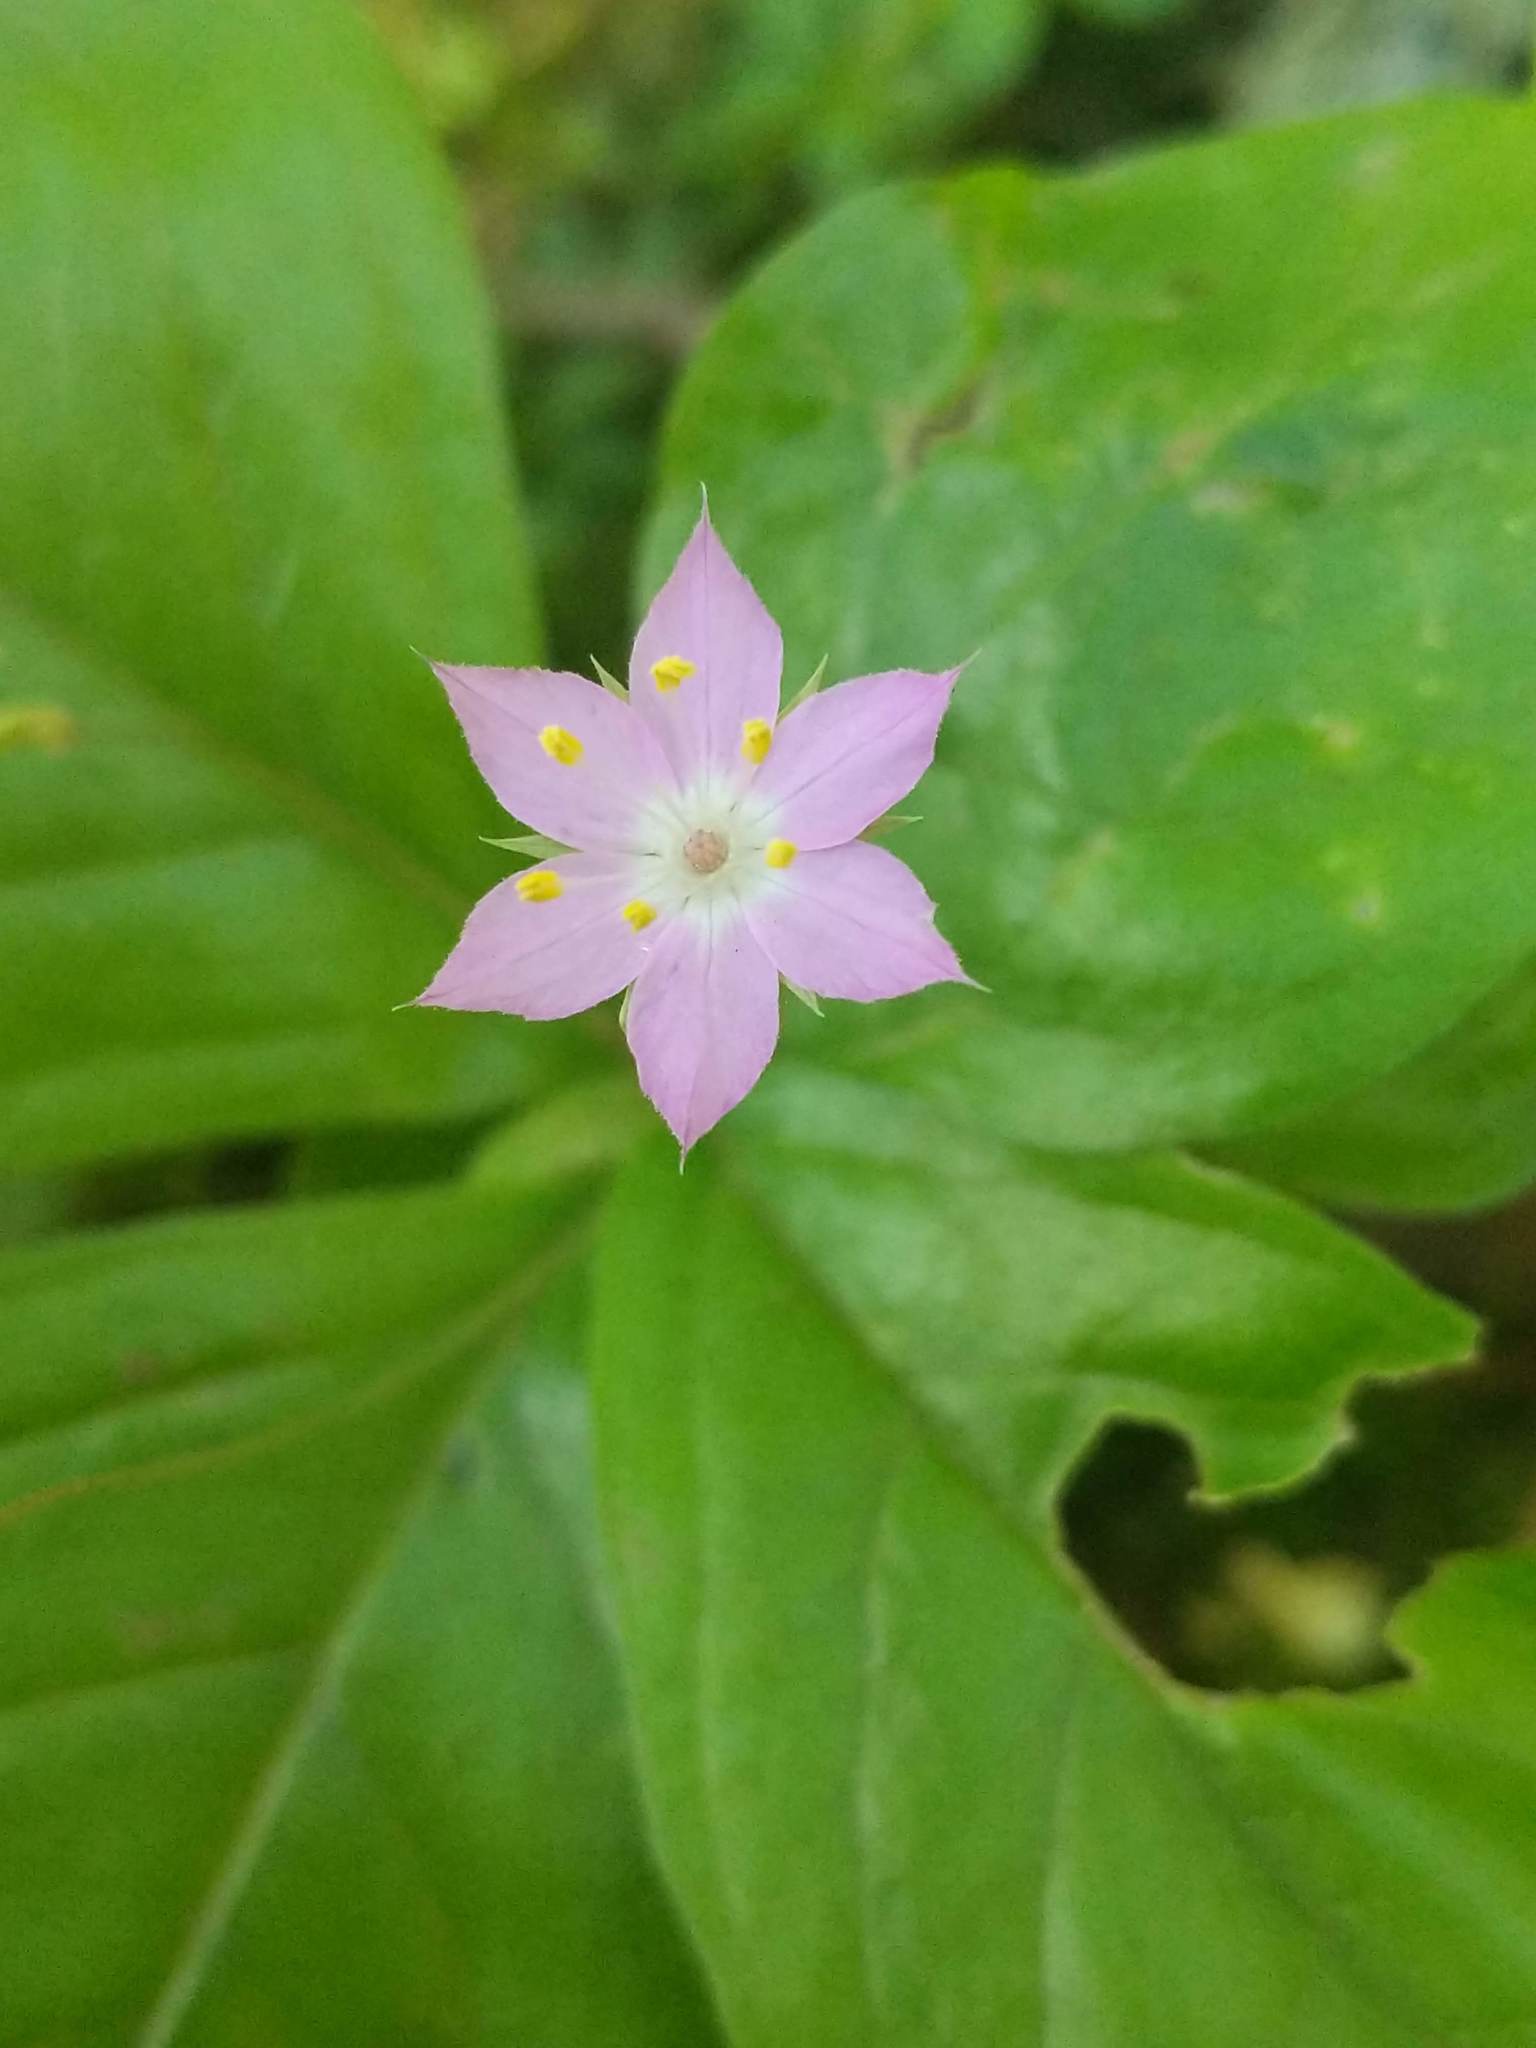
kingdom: Plantae
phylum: Tracheophyta
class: Magnoliopsida
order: Ericales
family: Primulaceae
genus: Lysimachia
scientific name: Lysimachia latifolia
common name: Pacific starflower
